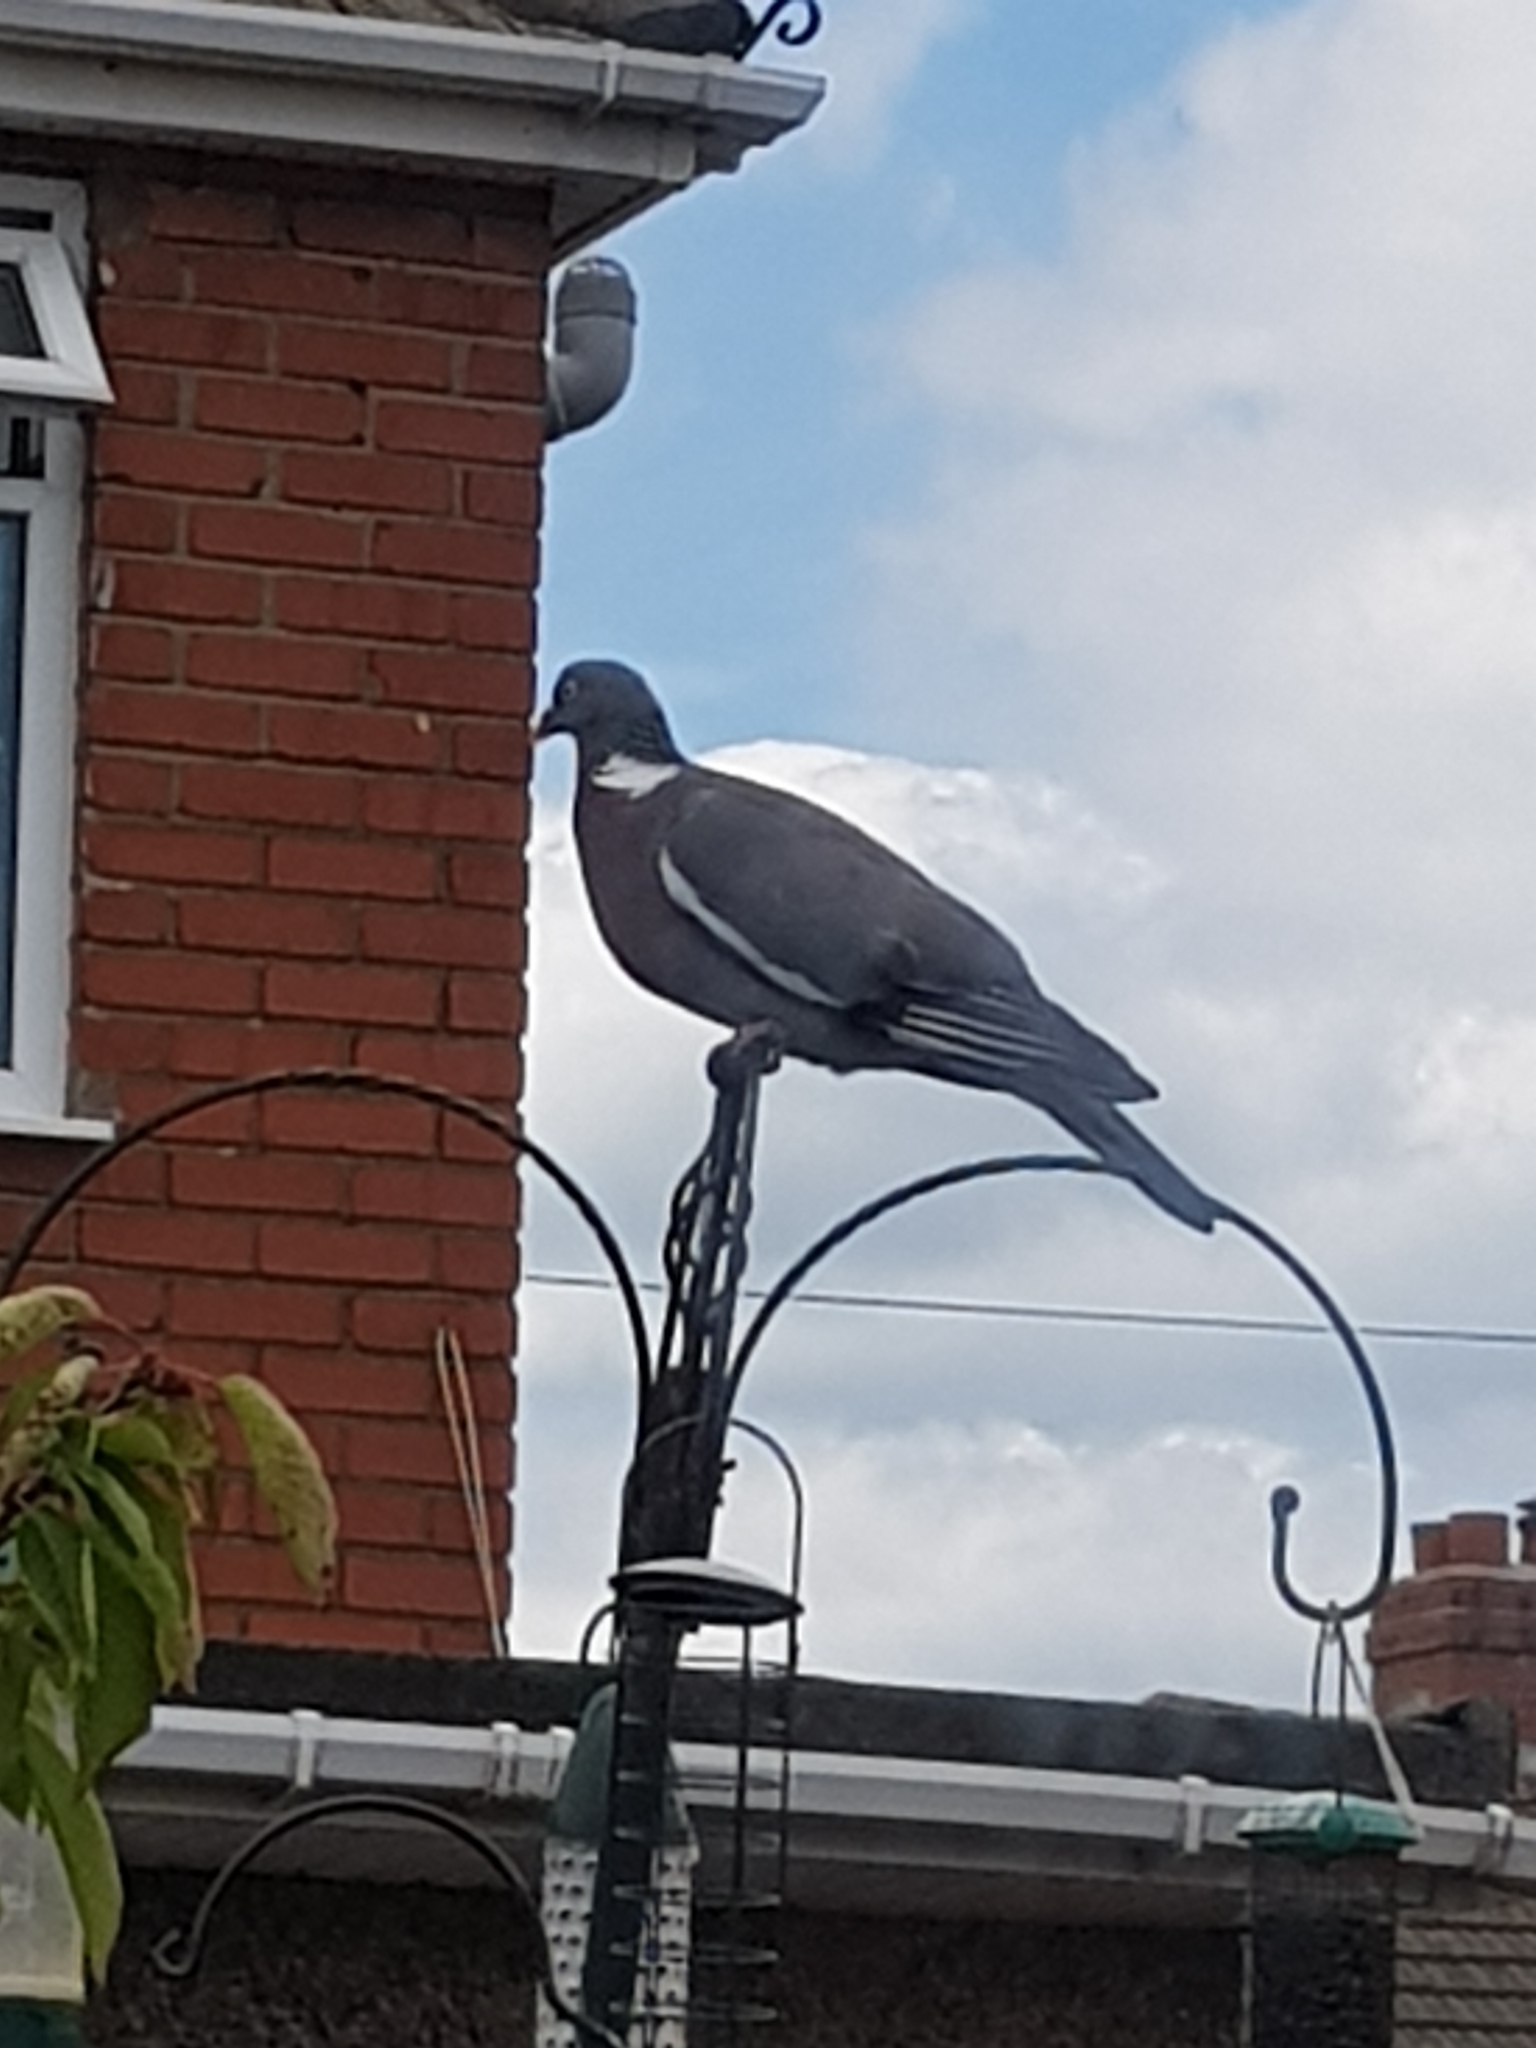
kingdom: Animalia
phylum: Chordata
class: Aves
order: Columbiformes
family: Columbidae
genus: Columba
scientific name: Columba palumbus
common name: Common wood pigeon
